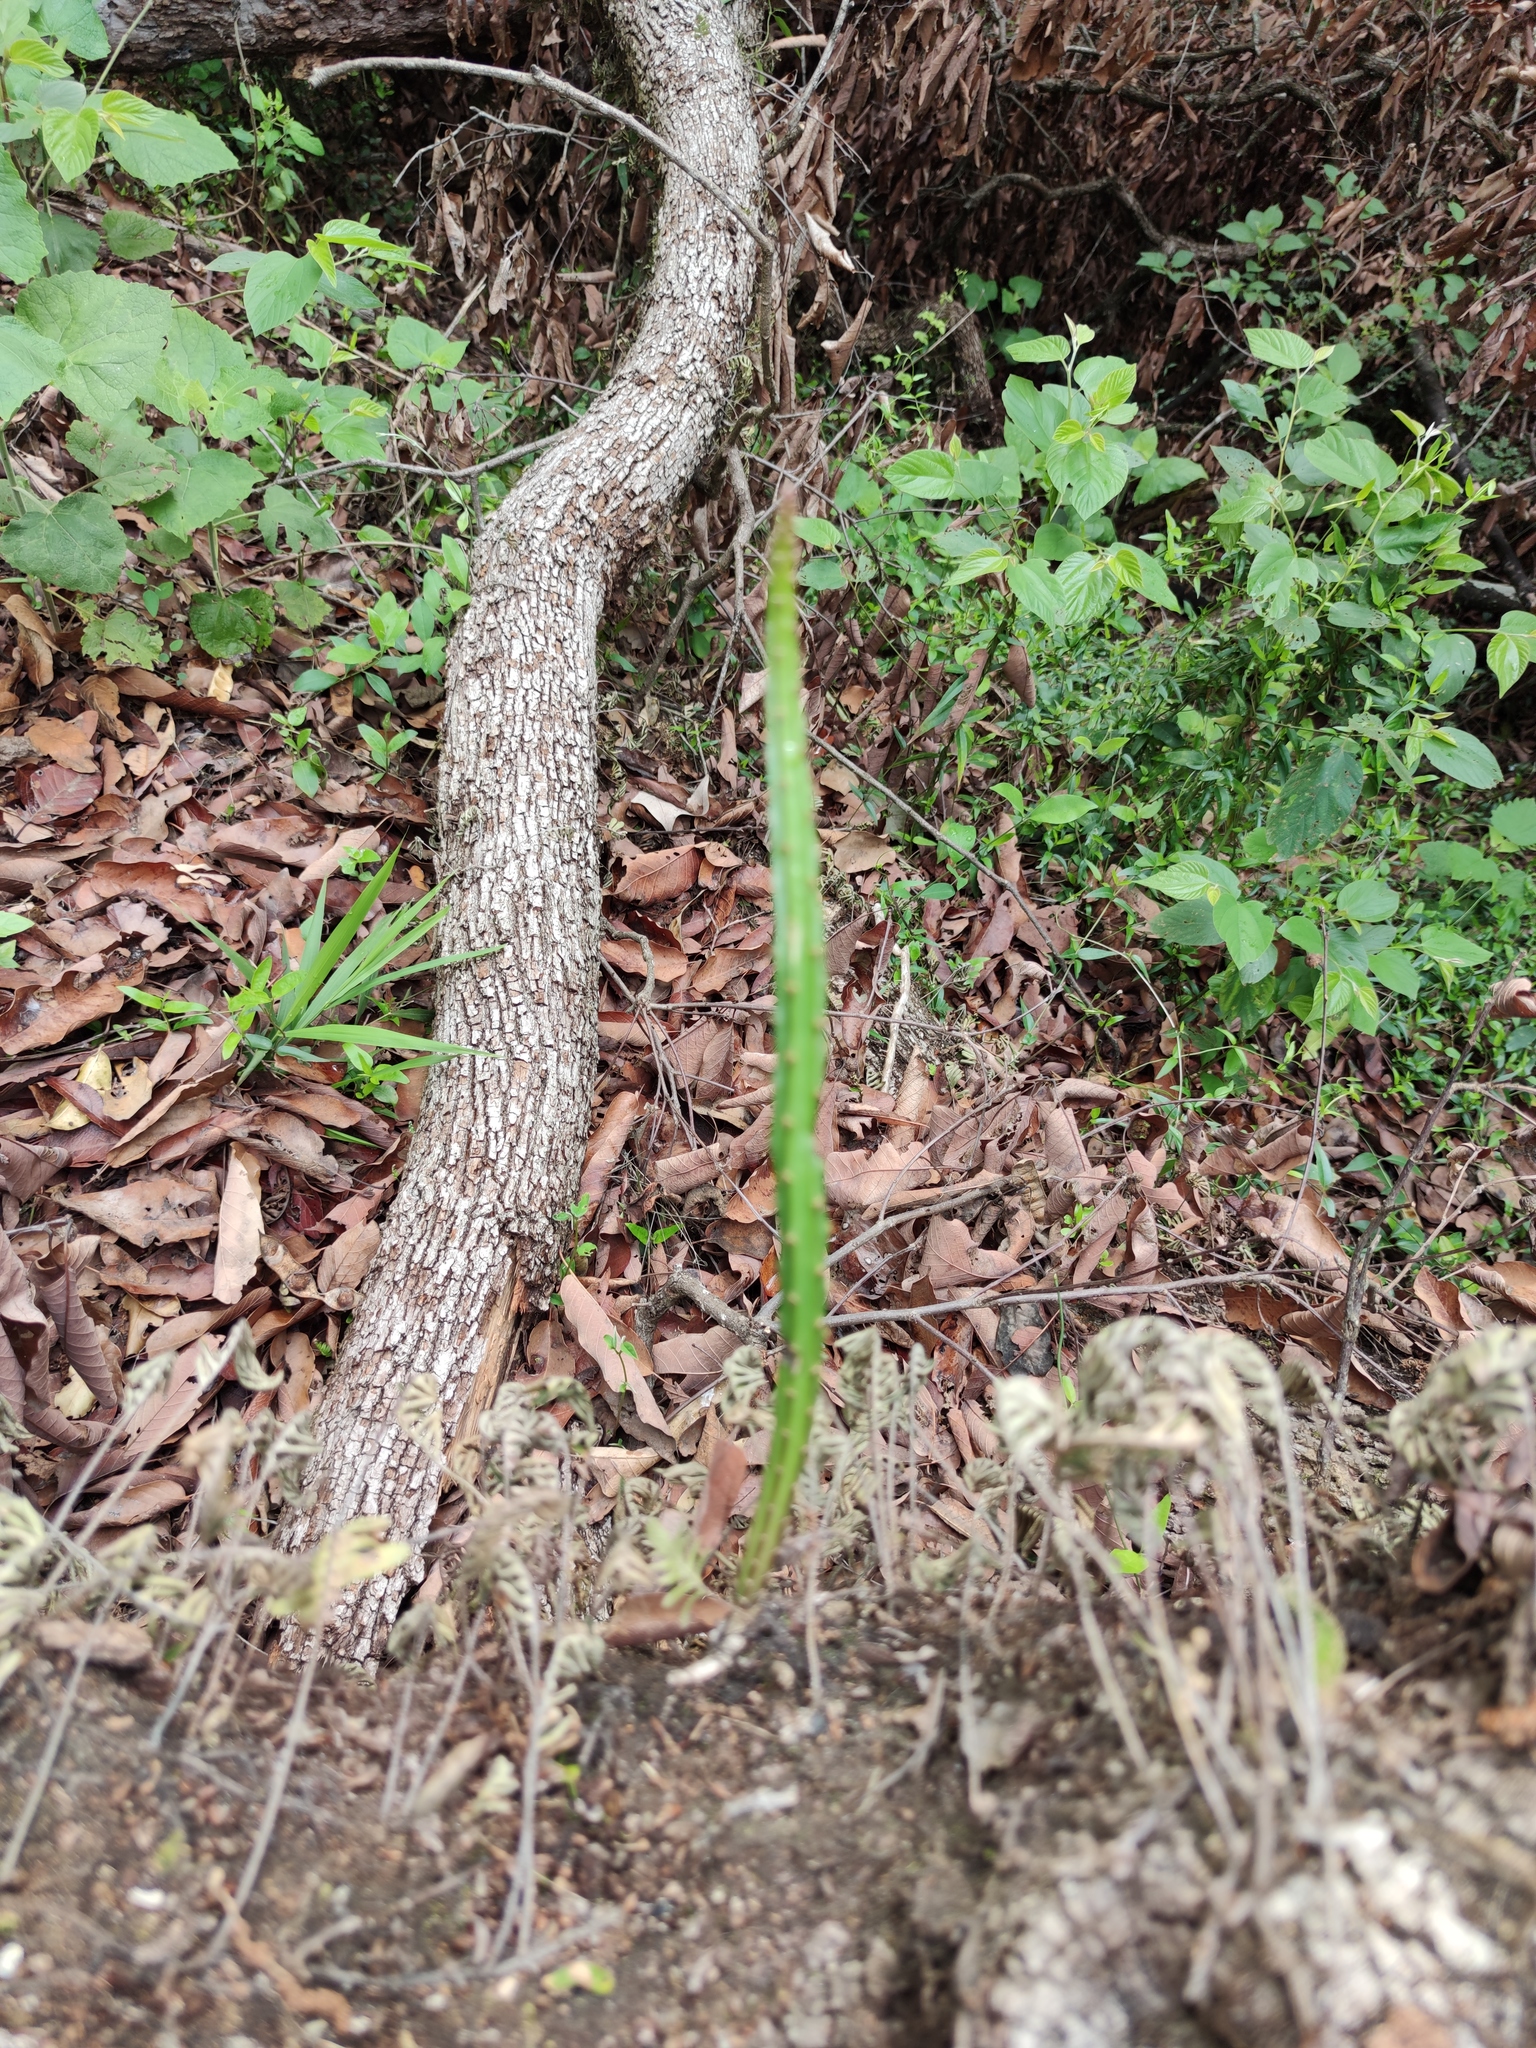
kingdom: Plantae
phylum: Tracheophyta
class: Magnoliopsida
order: Caryophyllales
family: Cactaceae
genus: Selenicereus
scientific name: Selenicereus spinulosus
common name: Nightblooming cereus
